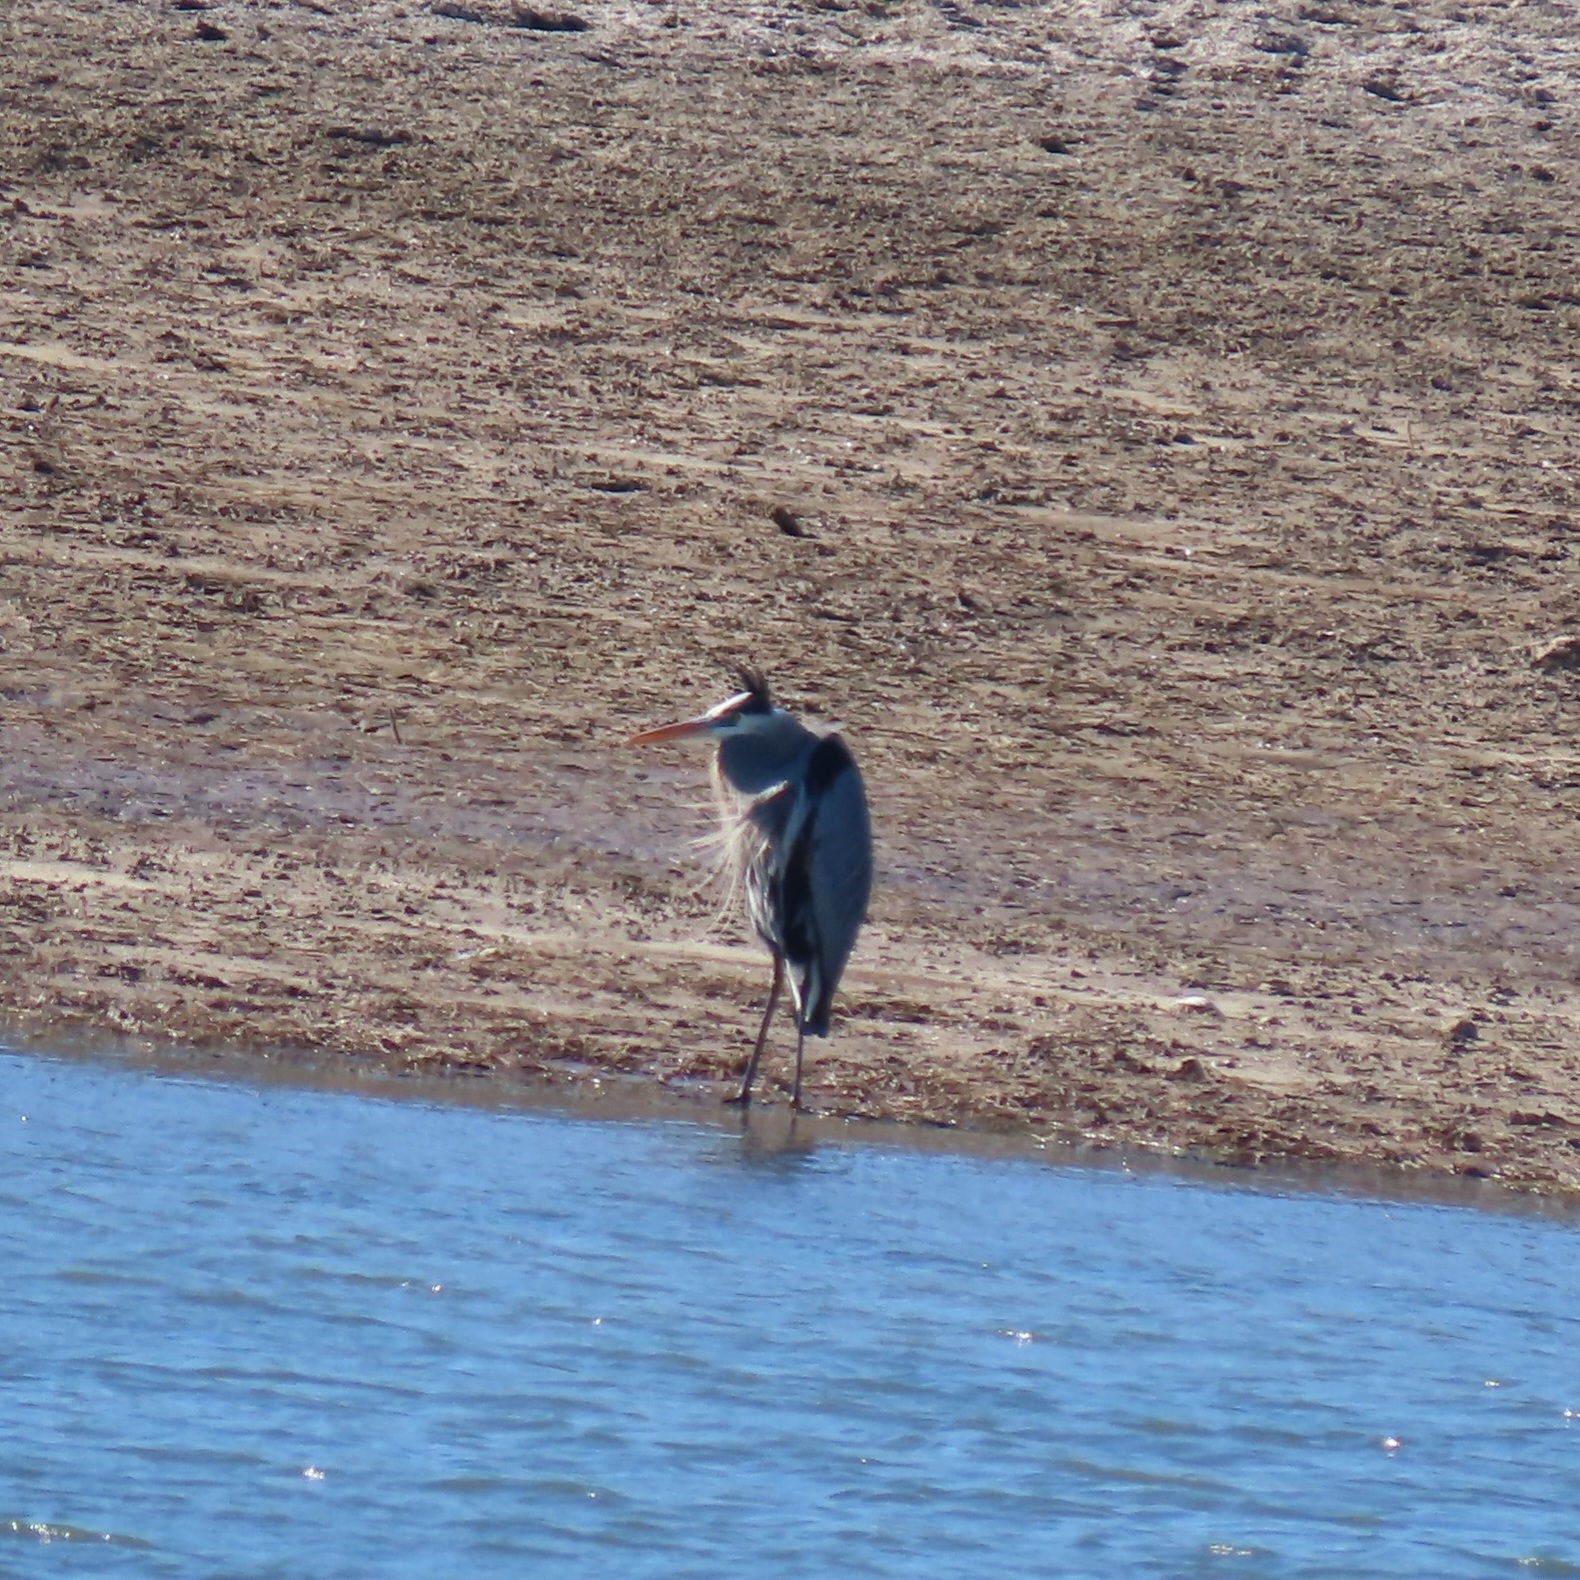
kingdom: Animalia
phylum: Chordata
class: Aves
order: Pelecaniformes
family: Ardeidae
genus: Ardea
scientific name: Ardea herodias
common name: Great blue heron
